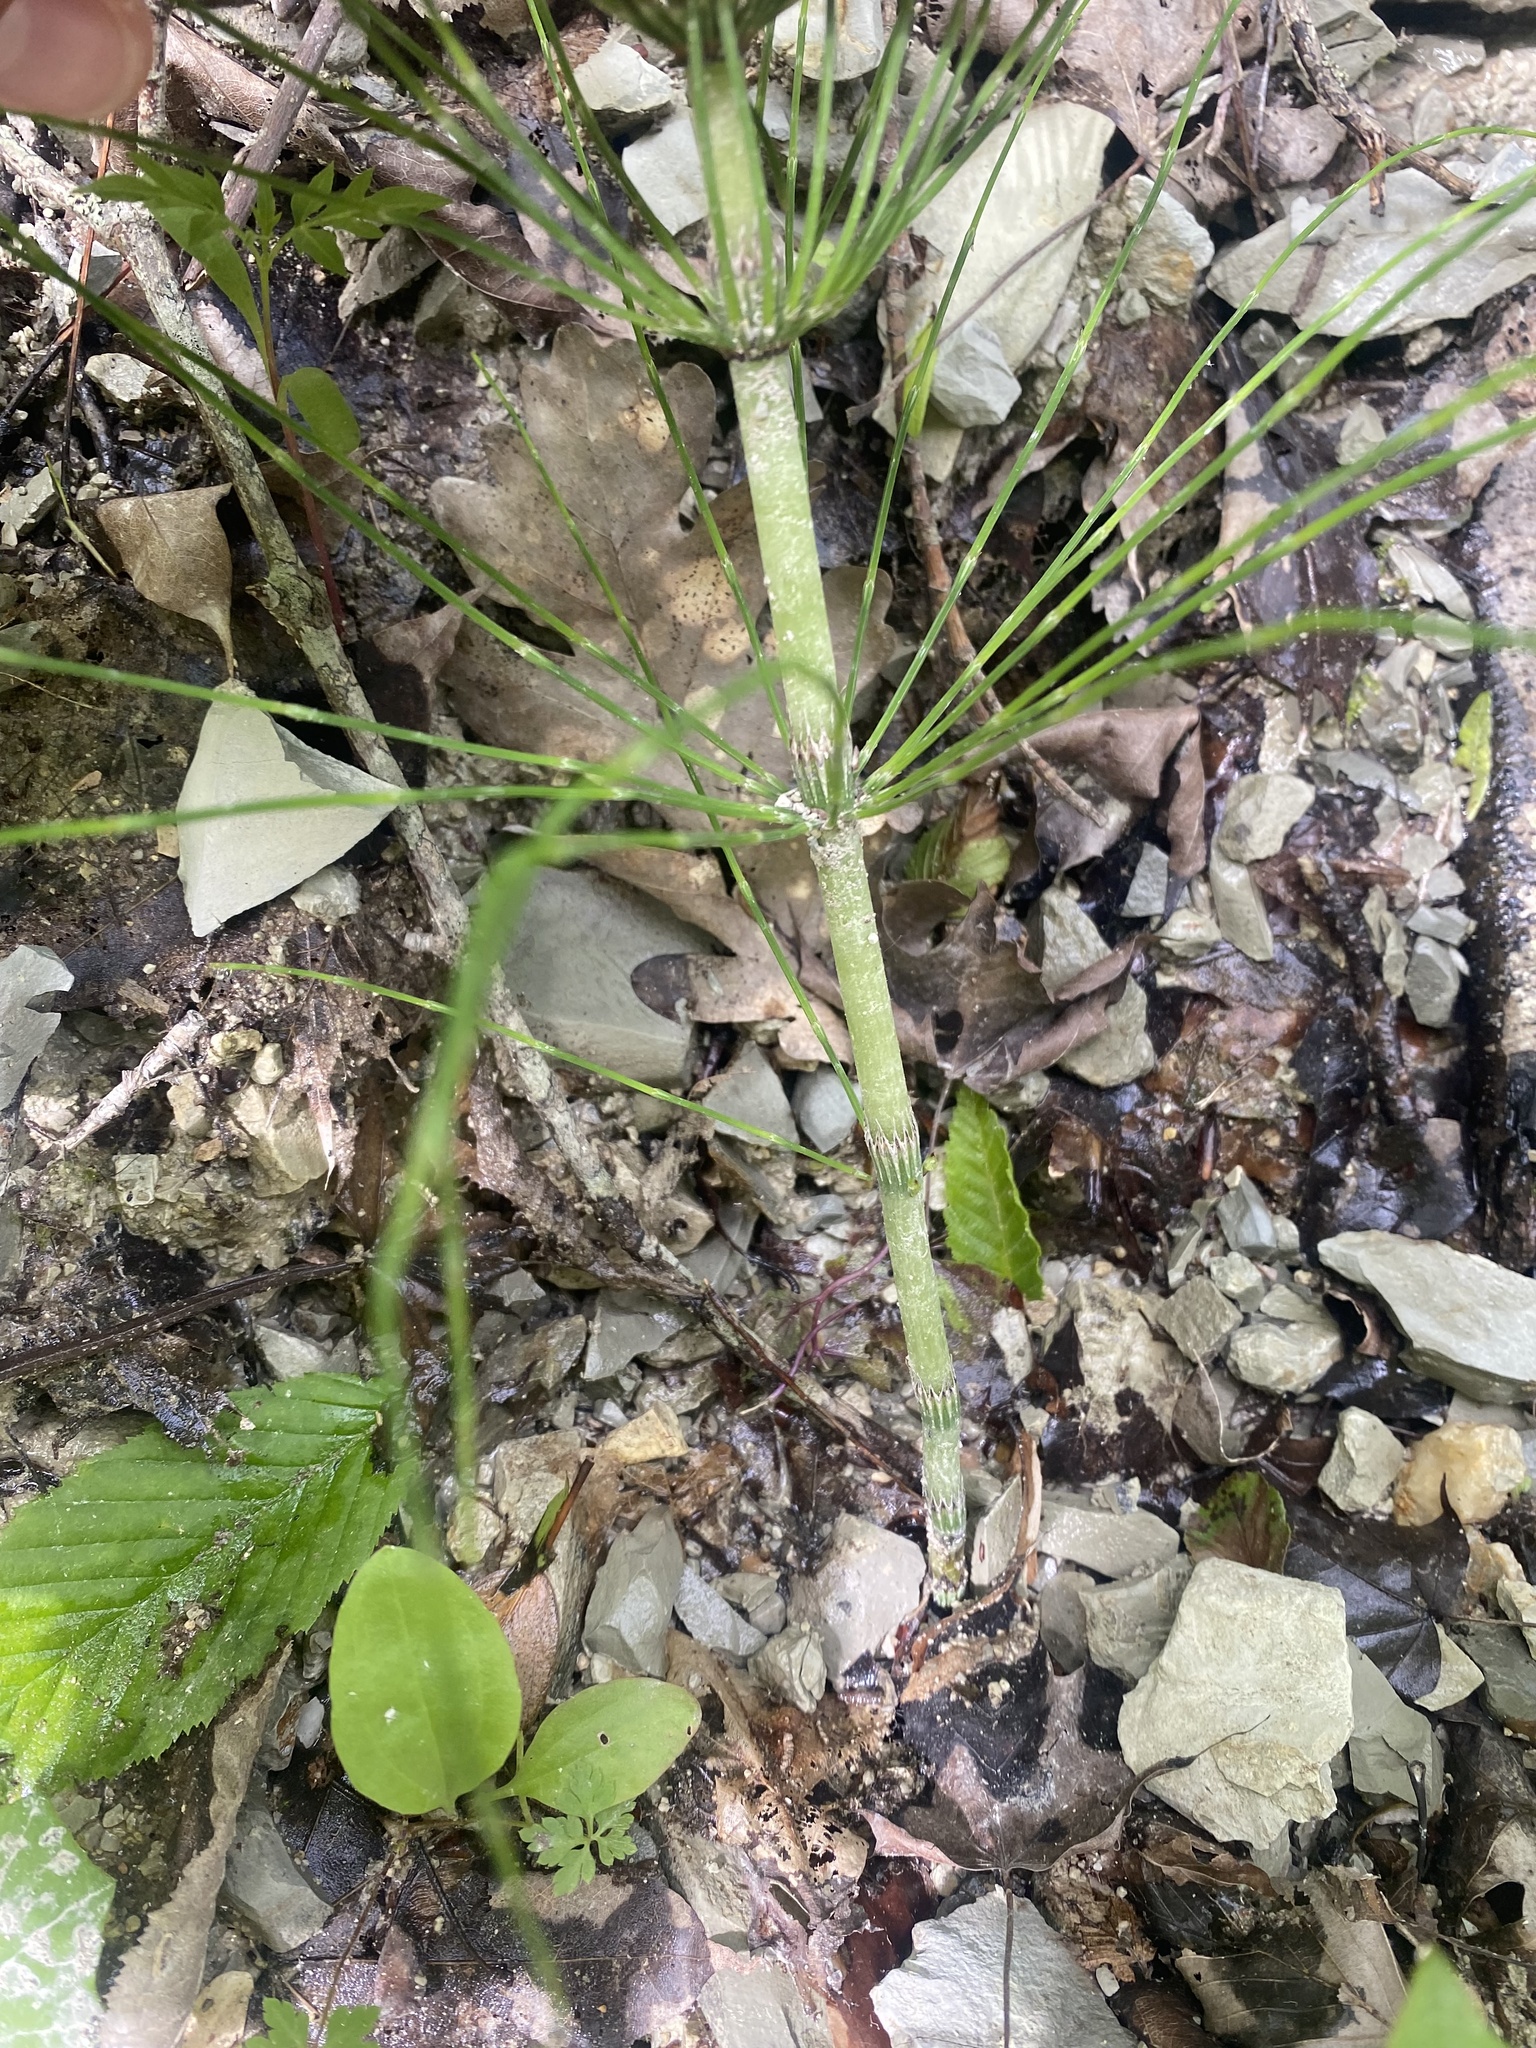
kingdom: Plantae
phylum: Tracheophyta
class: Polypodiopsida
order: Equisetales
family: Equisetaceae
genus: Equisetum
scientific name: Equisetum telmateia
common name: Great horsetail
